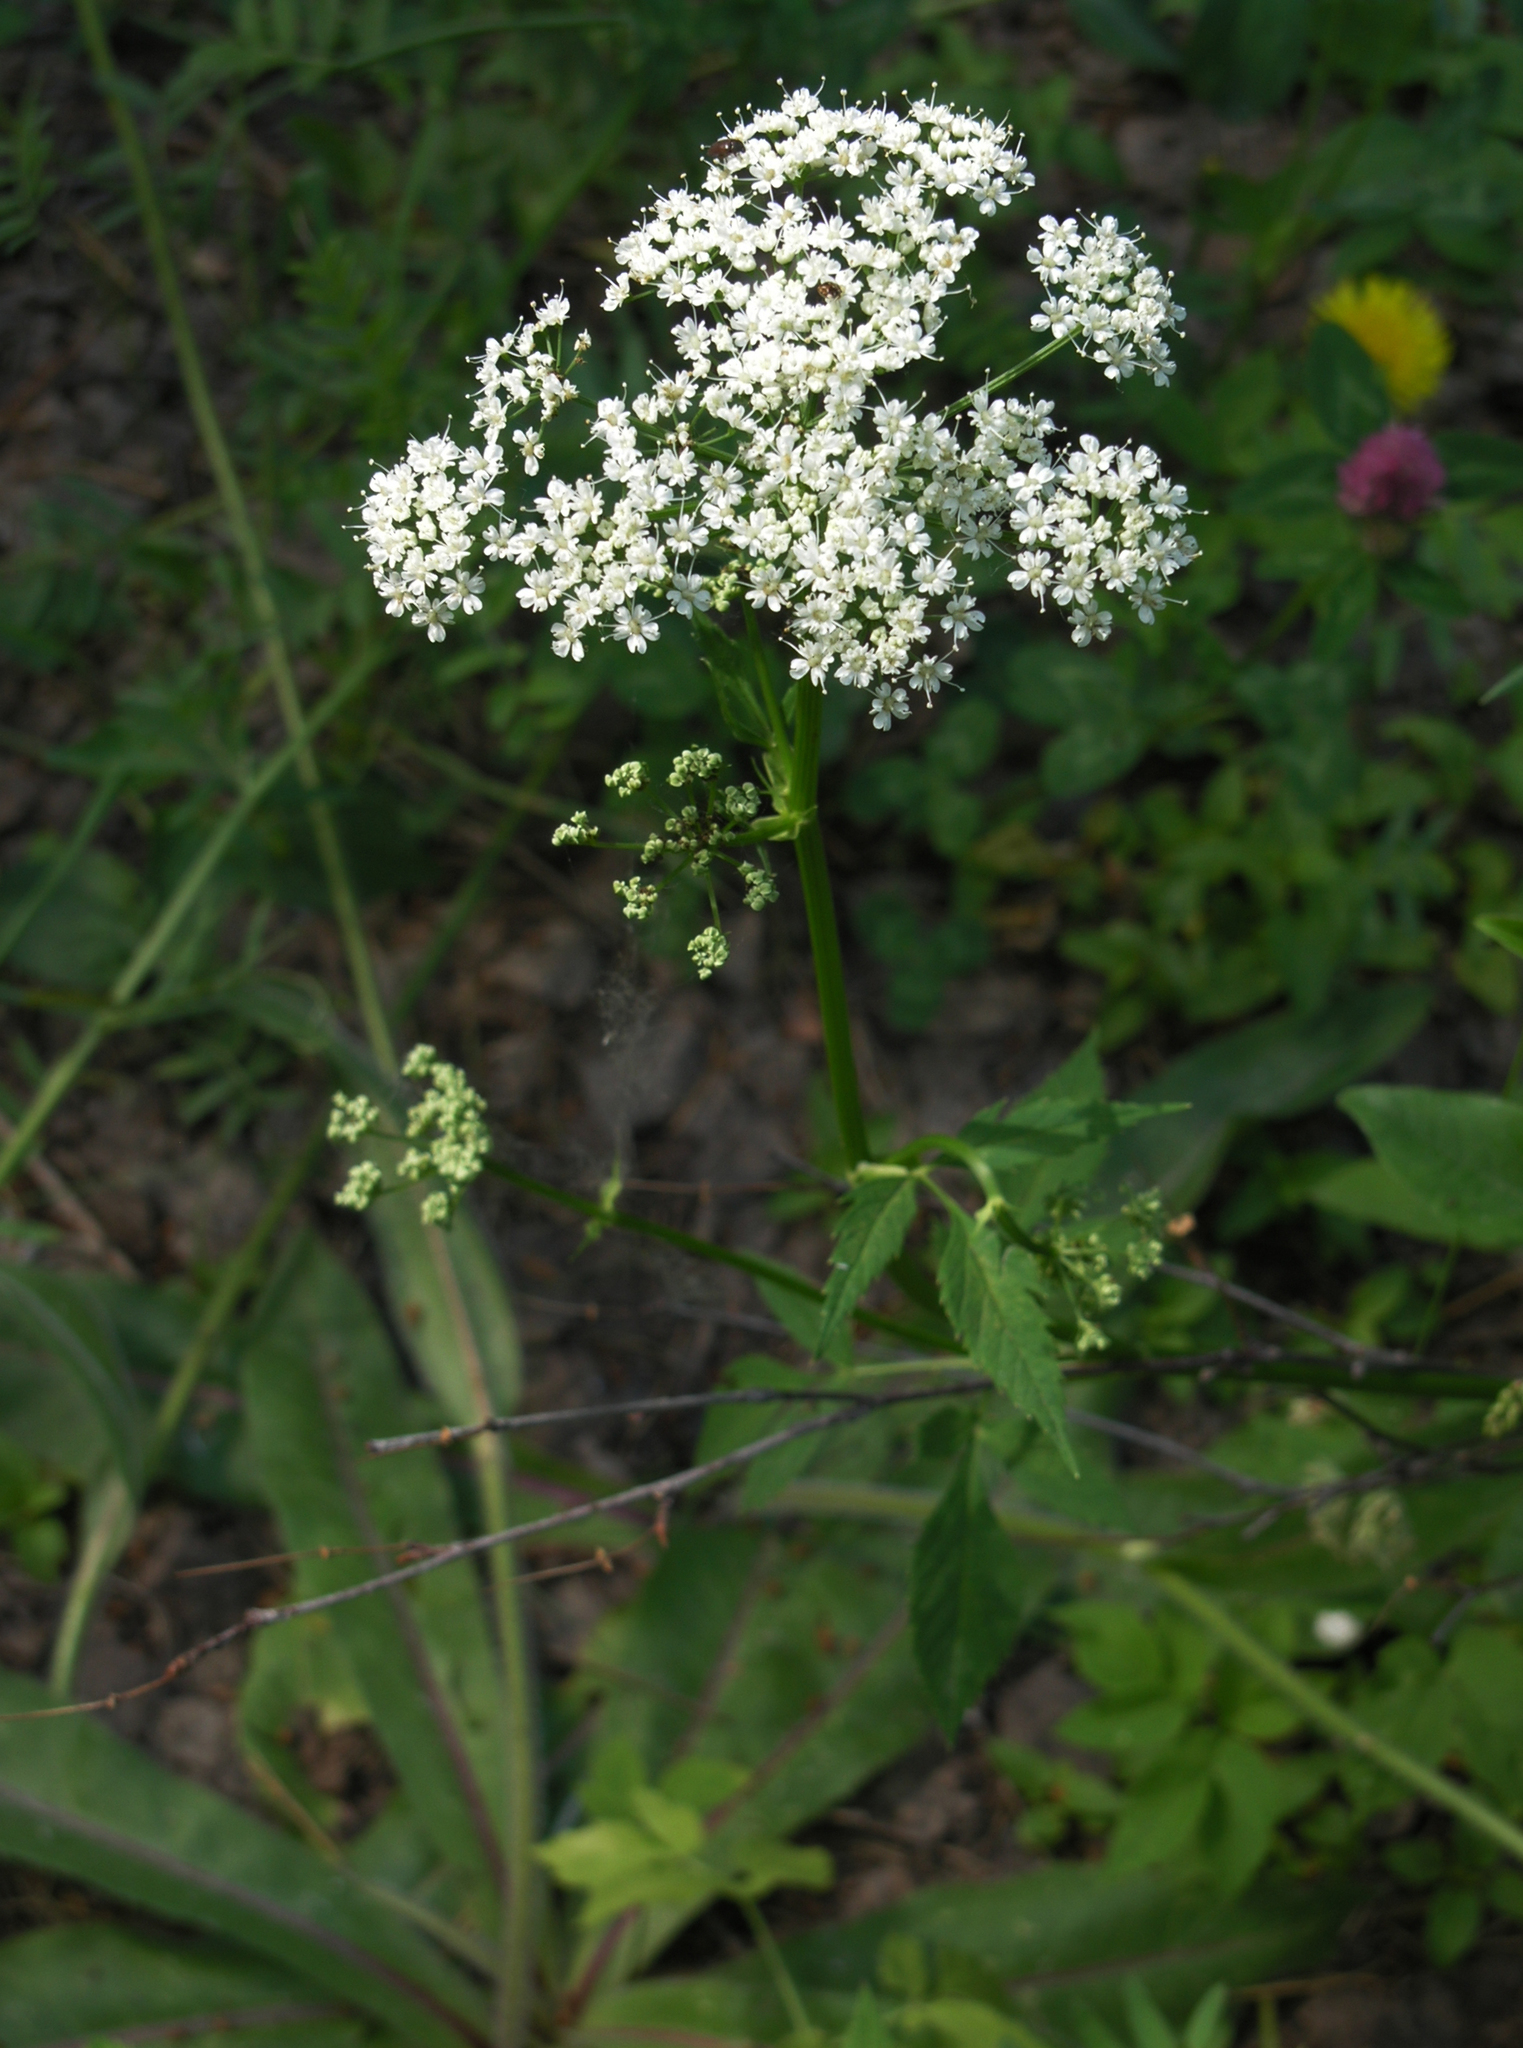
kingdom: Plantae
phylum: Tracheophyta
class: Magnoliopsida
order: Apiales
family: Apiaceae
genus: Aegopodium
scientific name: Aegopodium podagraria
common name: Ground-elder
